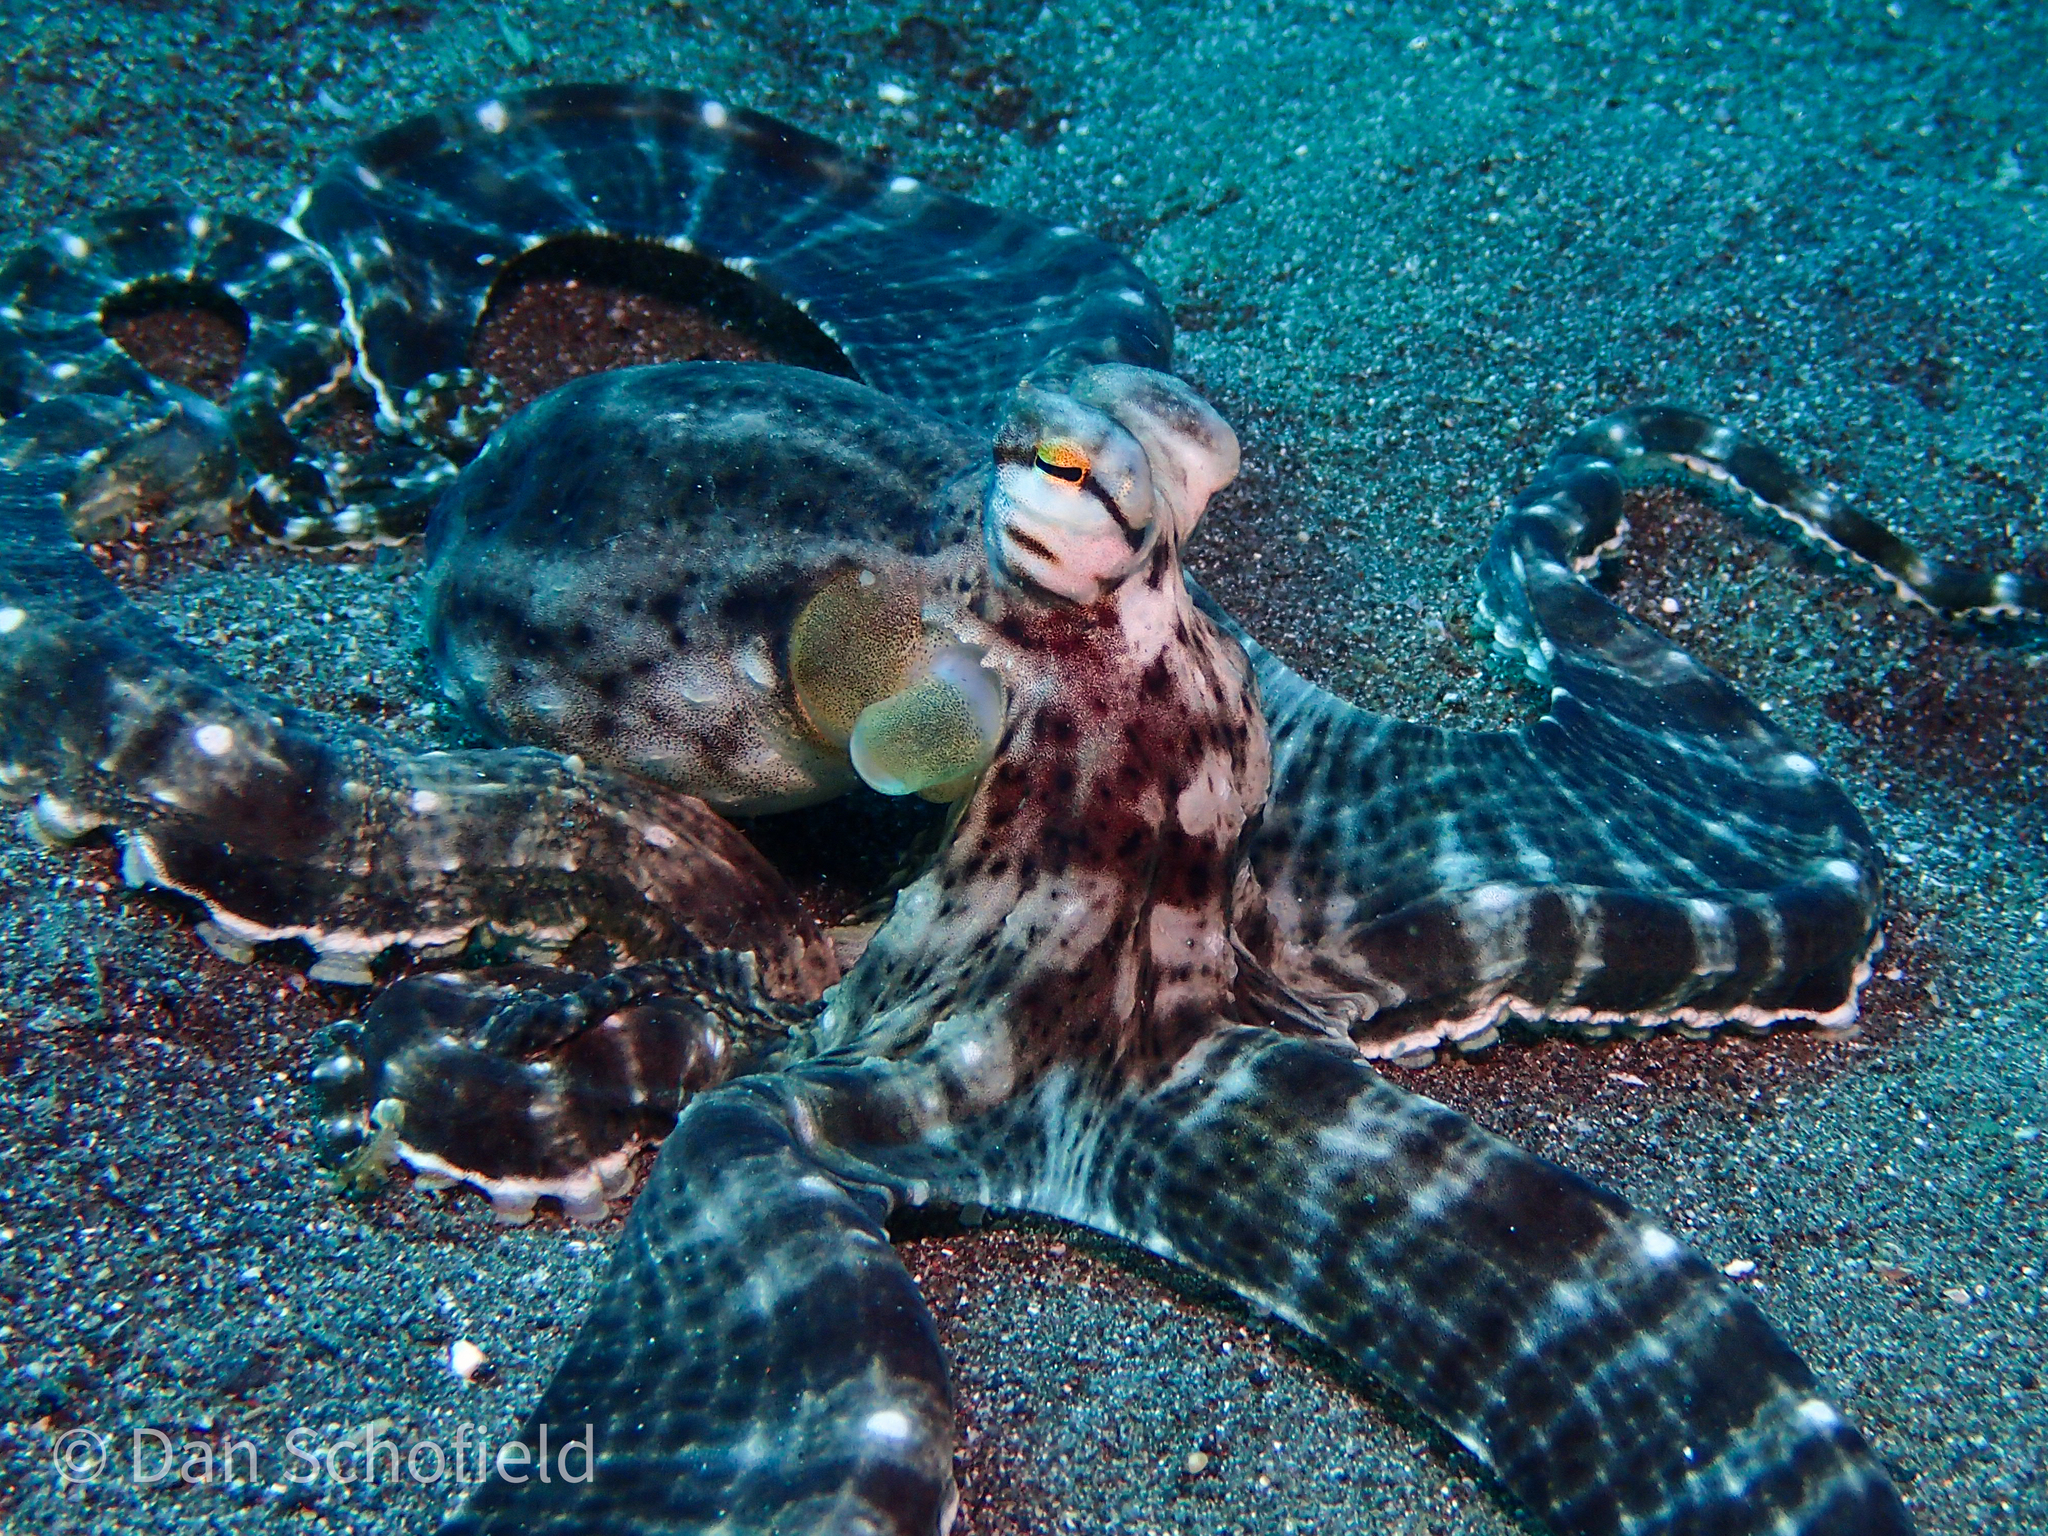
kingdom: Animalia
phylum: Mollusca
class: Cephalopoda
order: Octopoda
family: Octopodidae
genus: Thaumoctopus
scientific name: Thaumoctopus mimicus
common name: Mimic octopus
